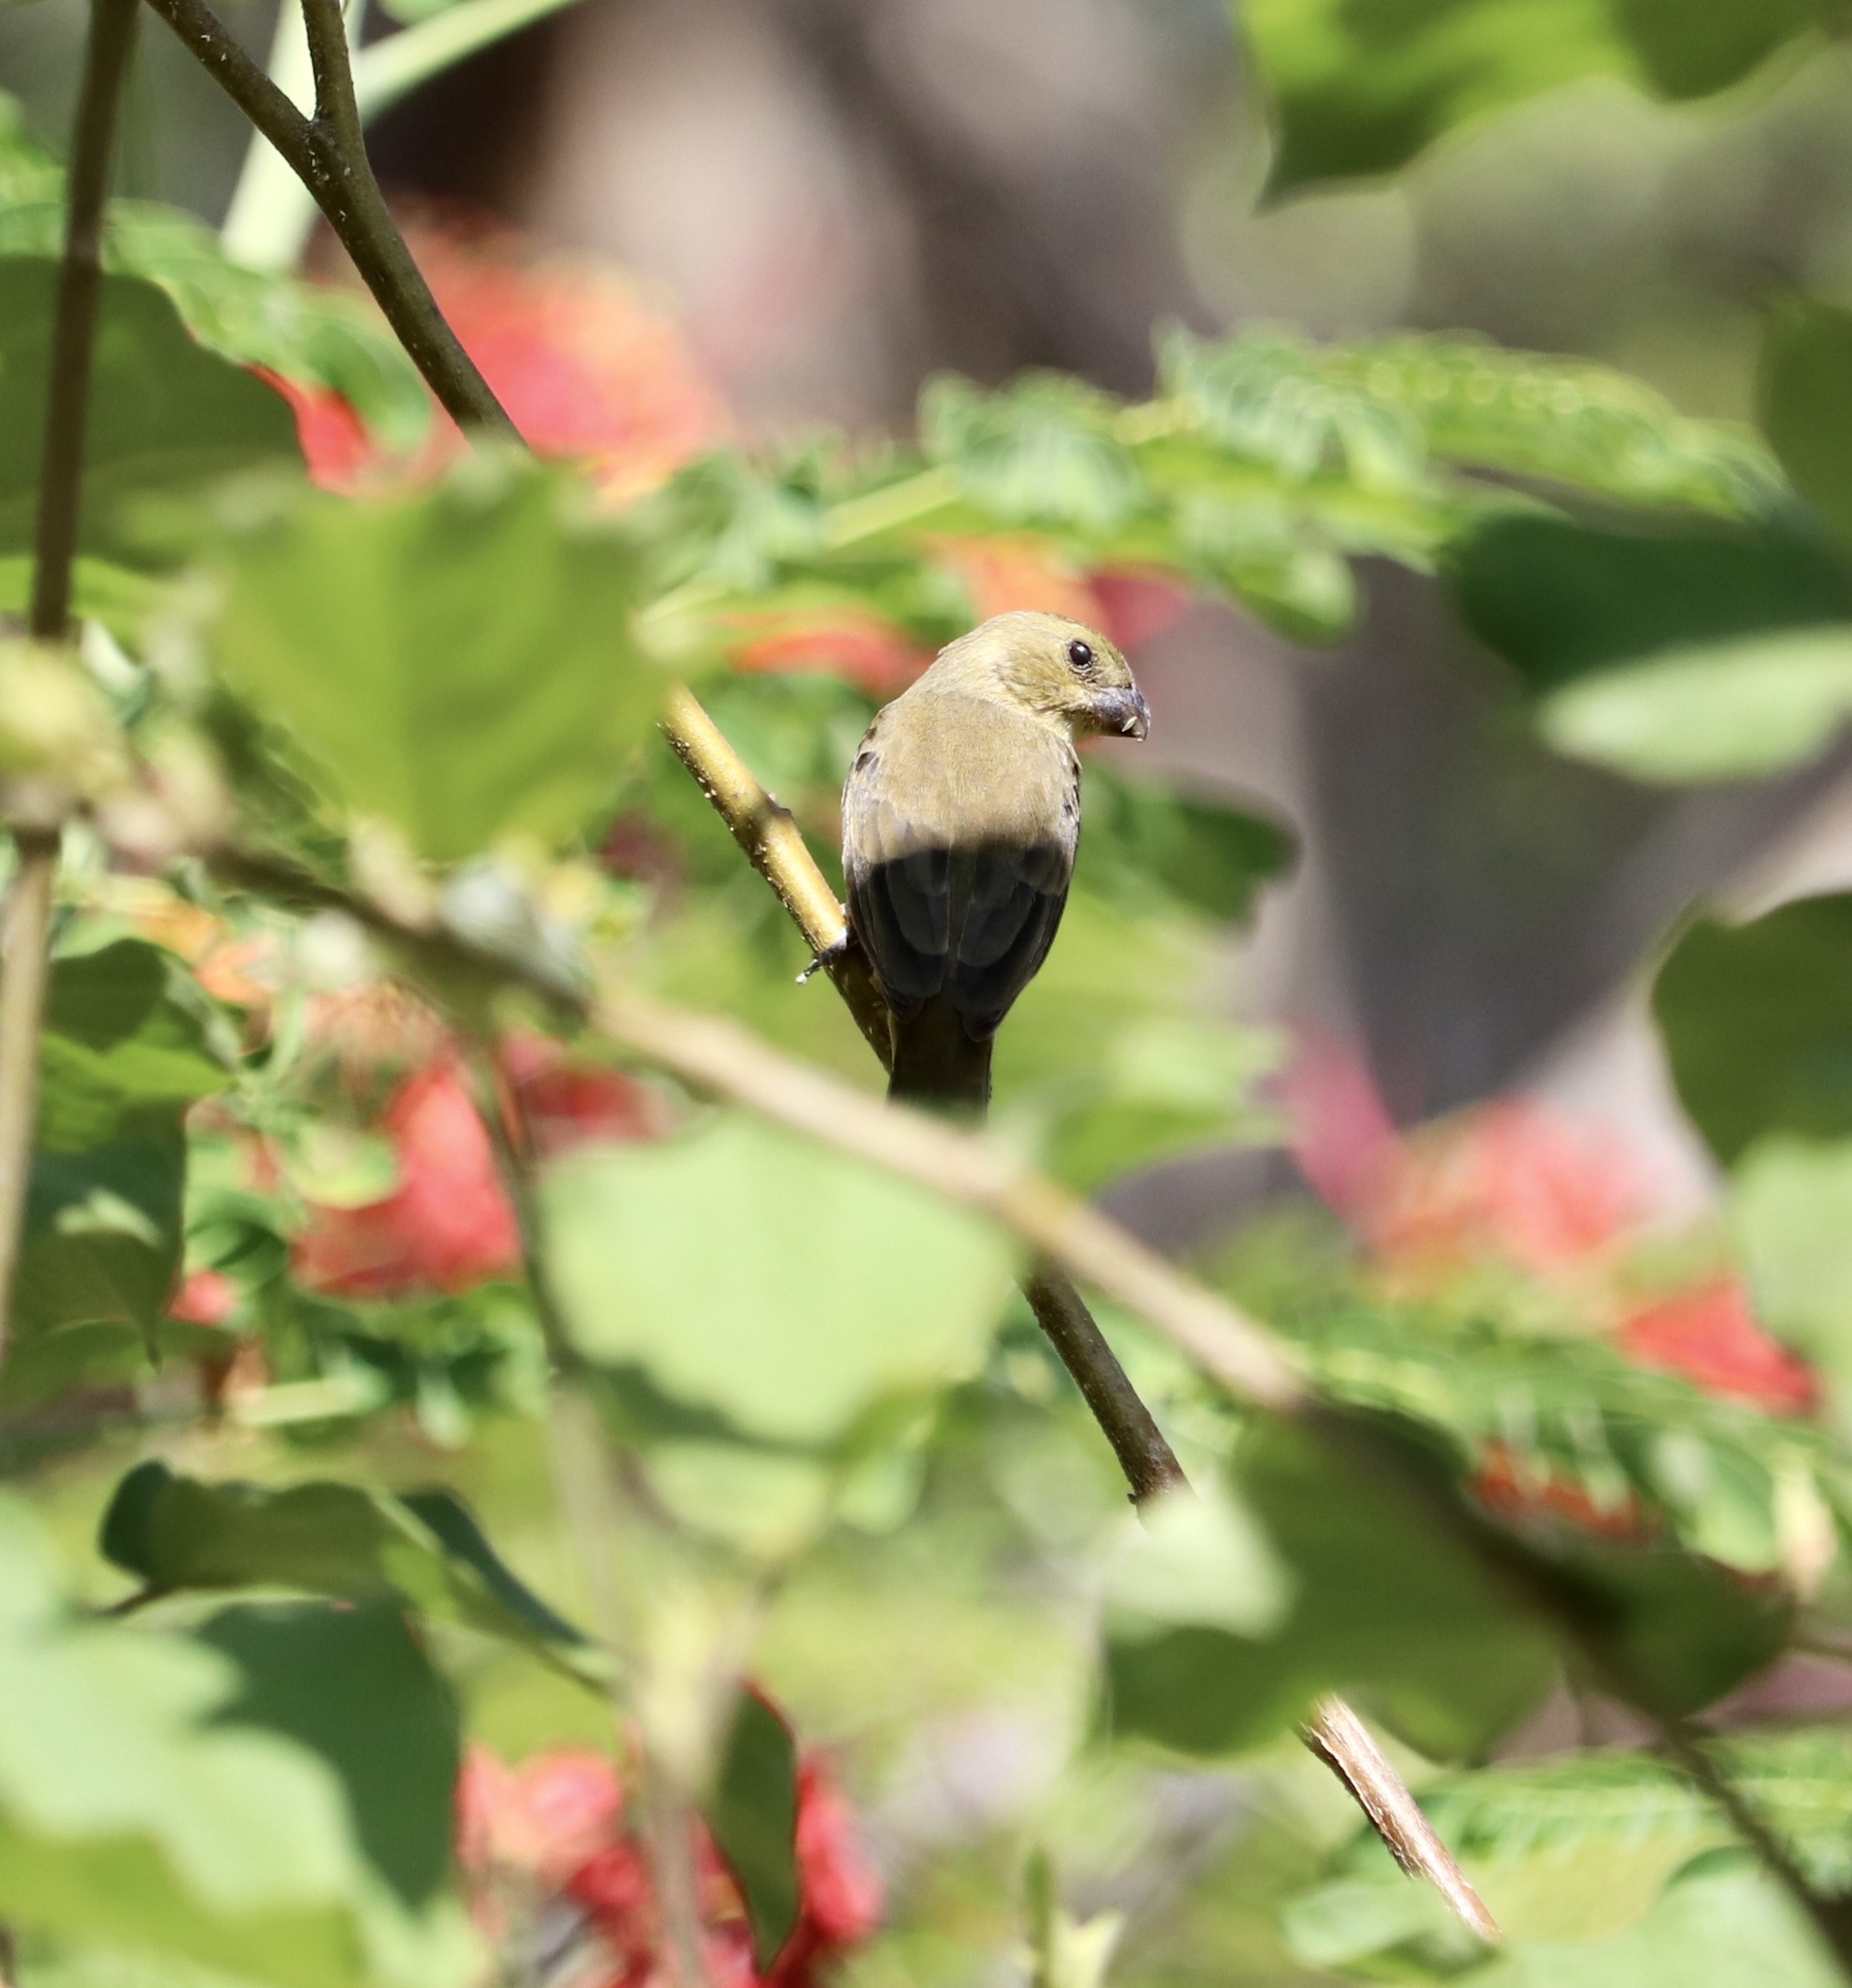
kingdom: Animalia
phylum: Chordata
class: Aves
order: Passeriformes
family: Thraupidae
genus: Sporophila
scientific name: Sporophila torqueola
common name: White-collared seedeater
